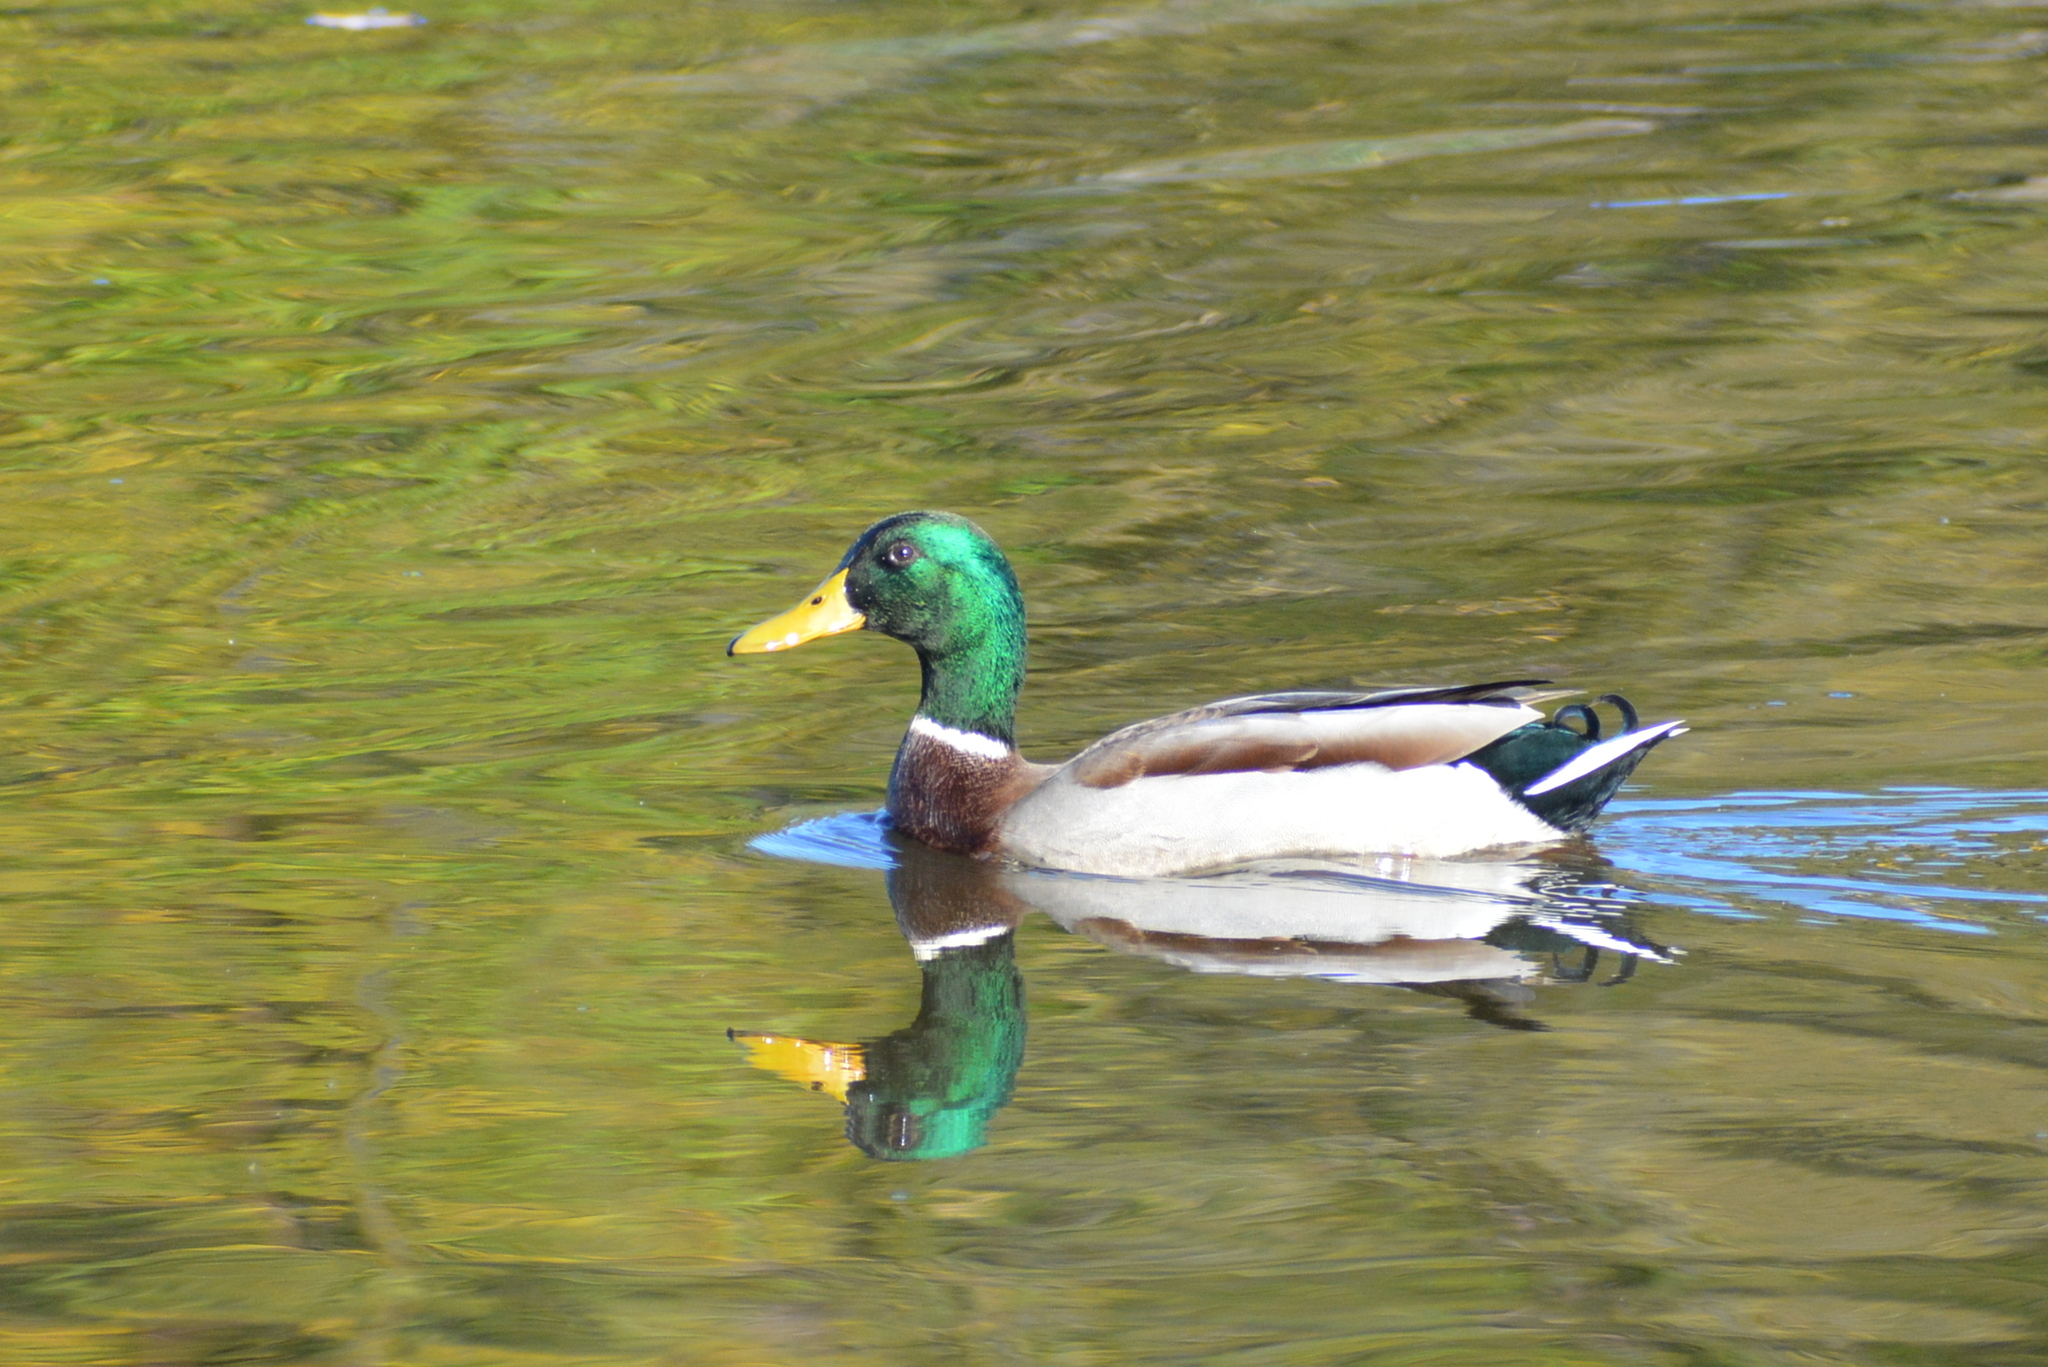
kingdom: Animalia
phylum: Chordata
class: Aves
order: Anseriformes
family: Anatidae
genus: Anas
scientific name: Anas platyrhynchos
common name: Mallard
